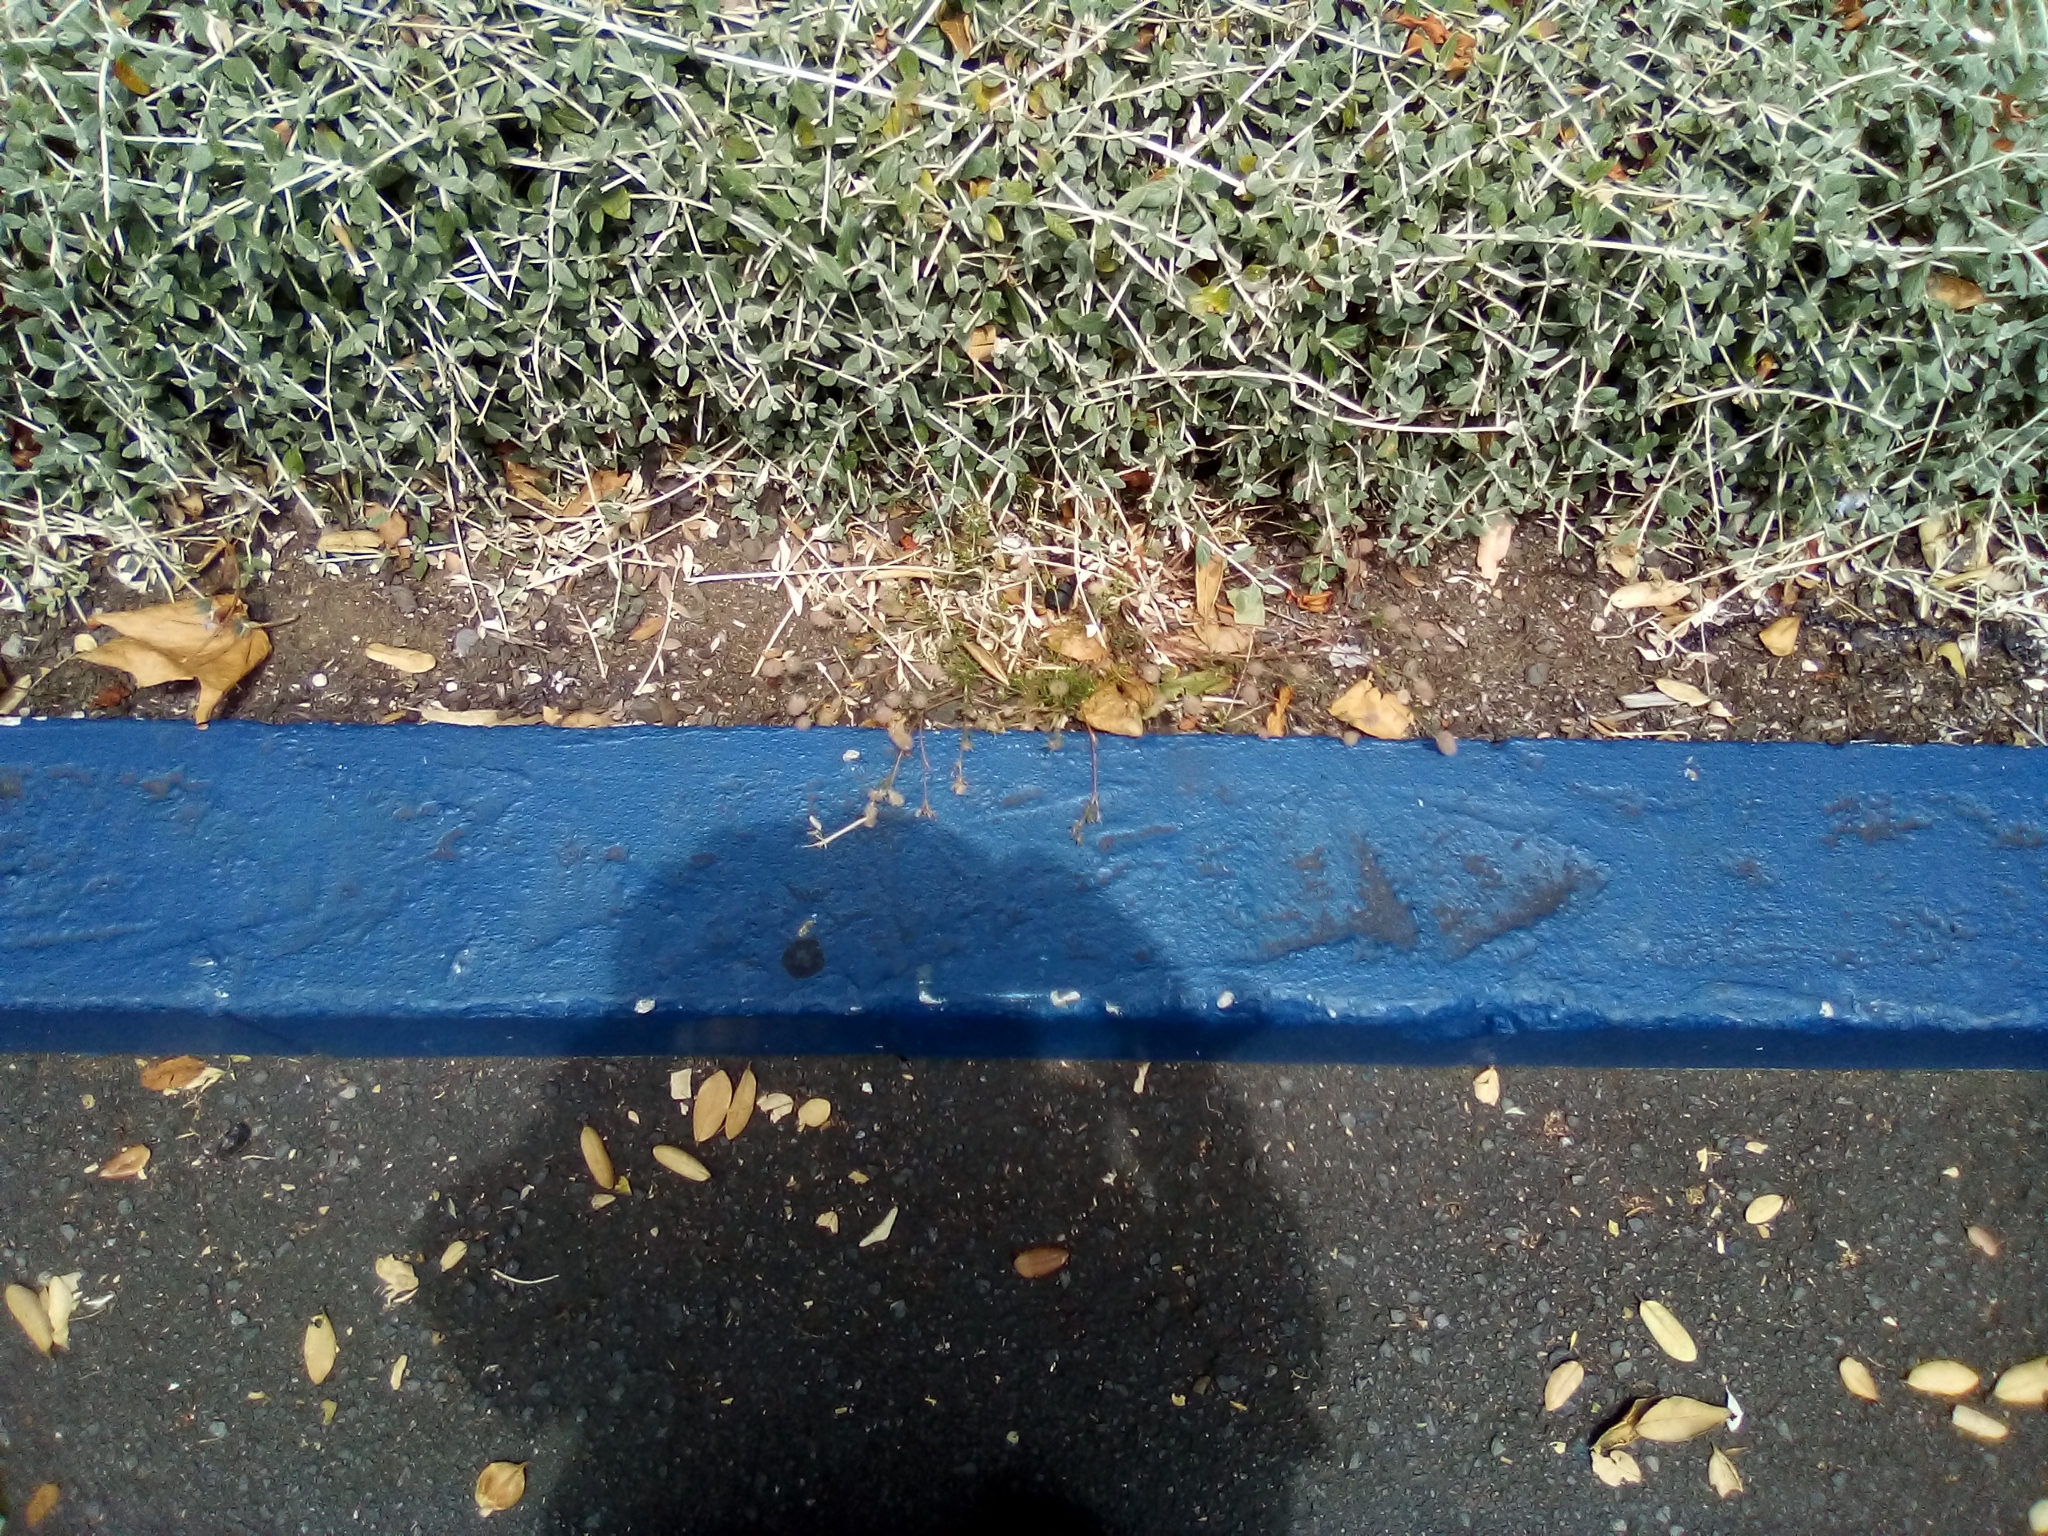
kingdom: Plantae
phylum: Tracheophyta
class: Magnoliopsida
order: Fabales
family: Fabaceae
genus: Trifolium
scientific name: Trifolium arvense
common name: Hare's-foot clover
